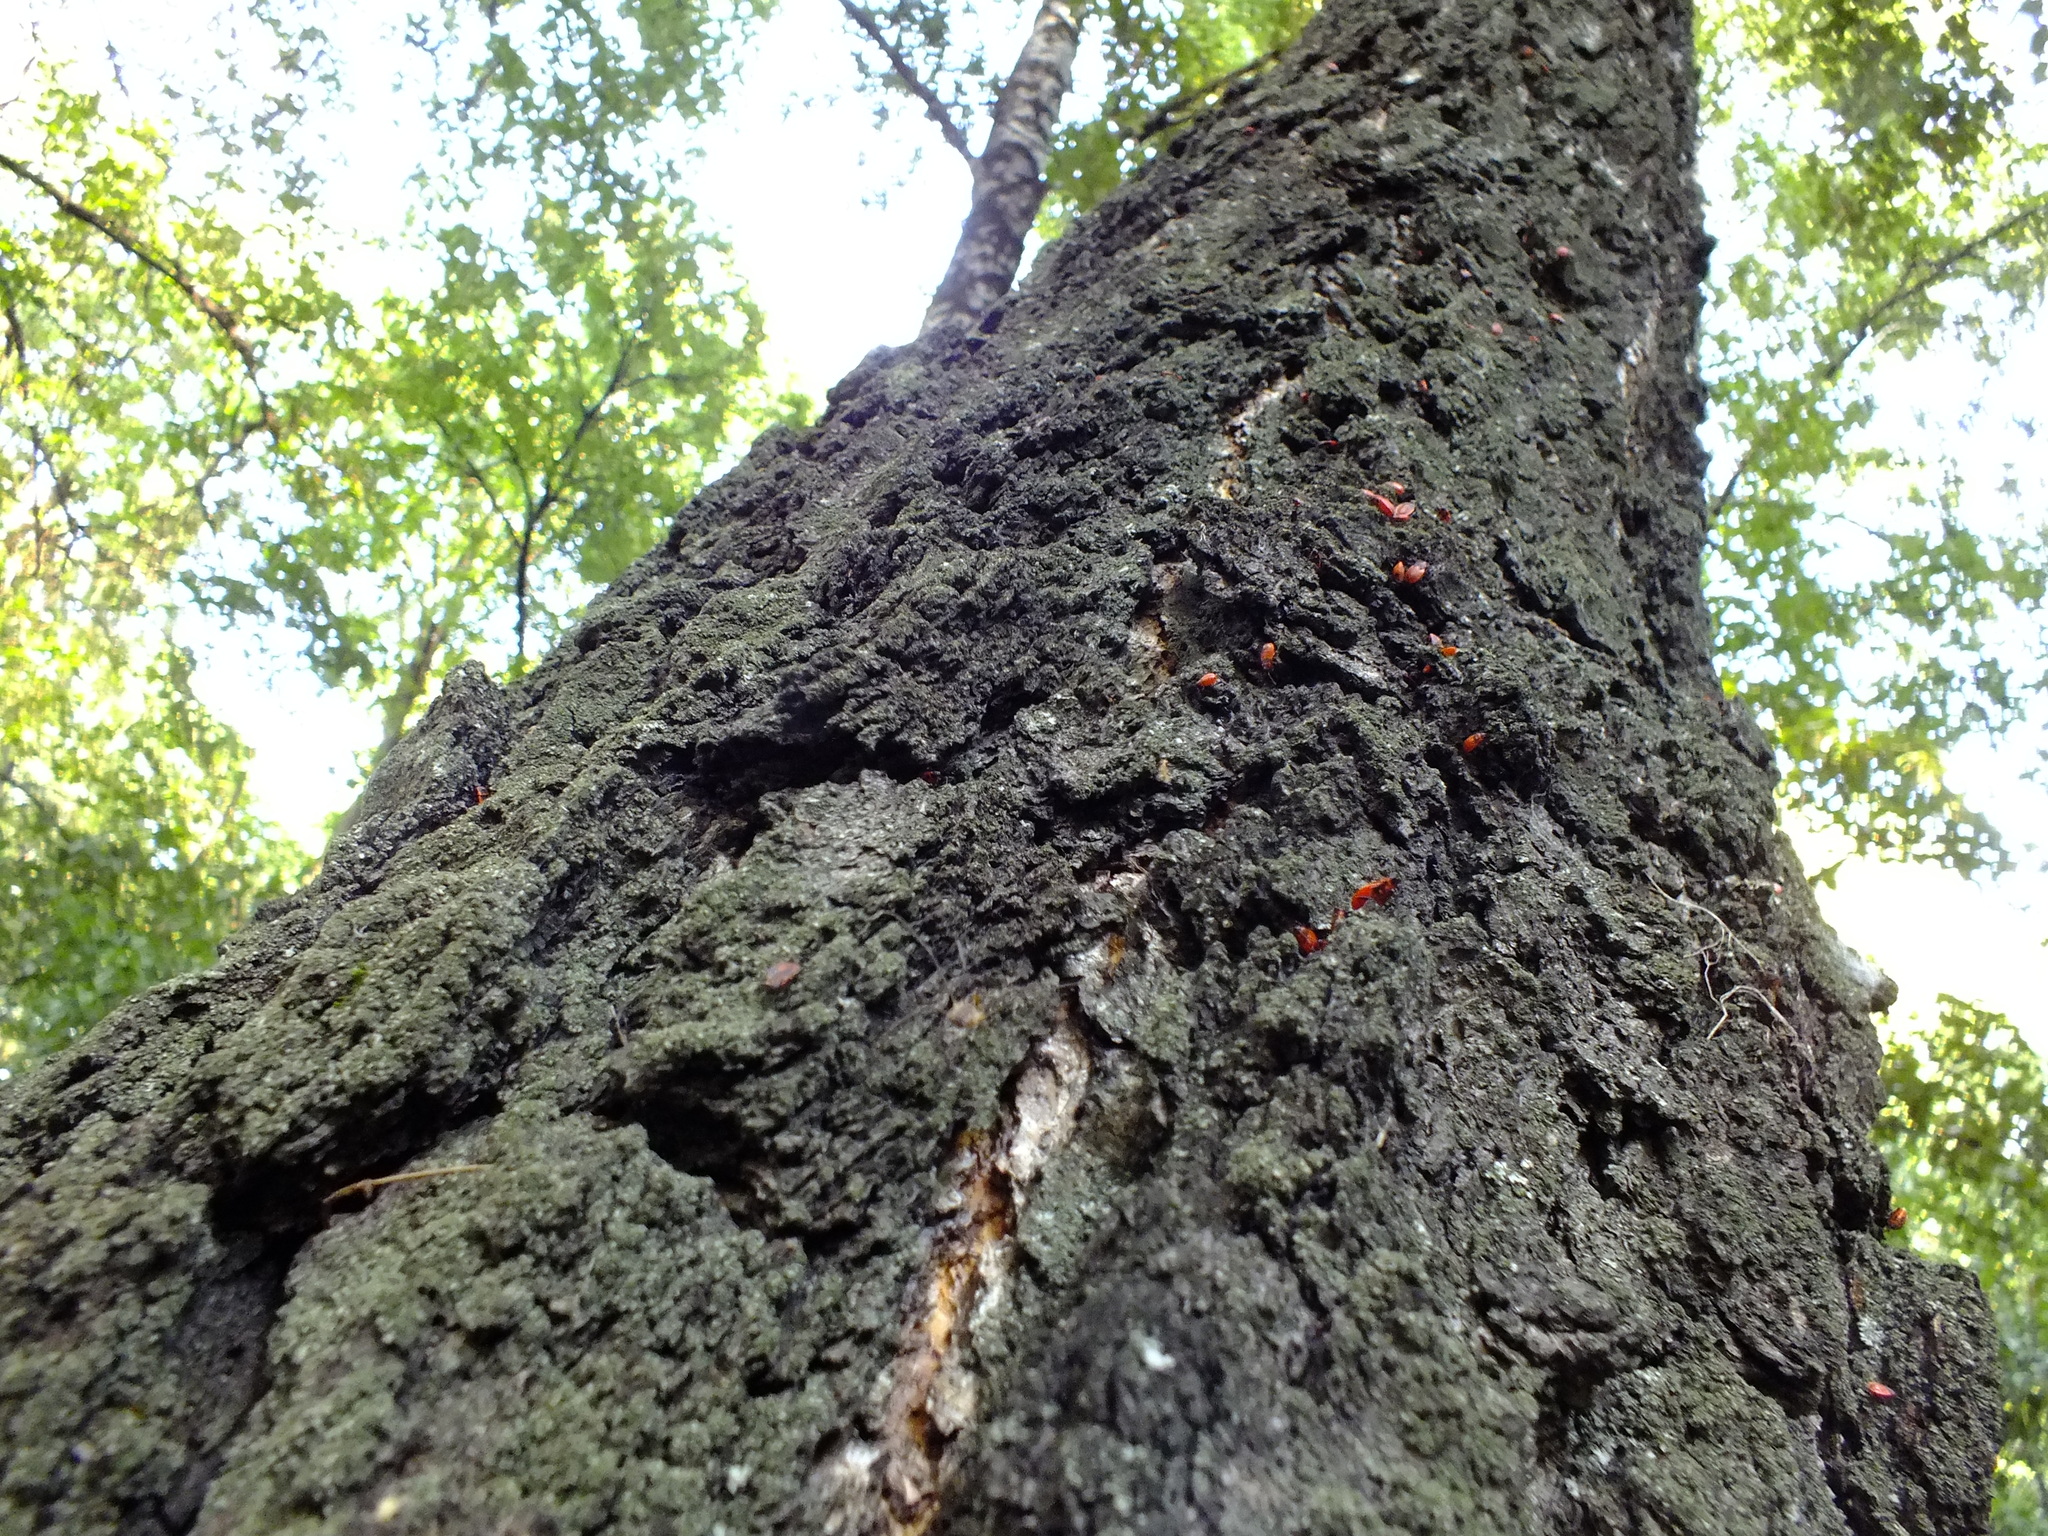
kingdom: Animalia
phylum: Arthropoda
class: Insecta
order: Hemiptera
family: Pyrrhocoridae
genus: Pyrrhocoris
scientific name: Pyrrhocoris apterus
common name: Firebug
